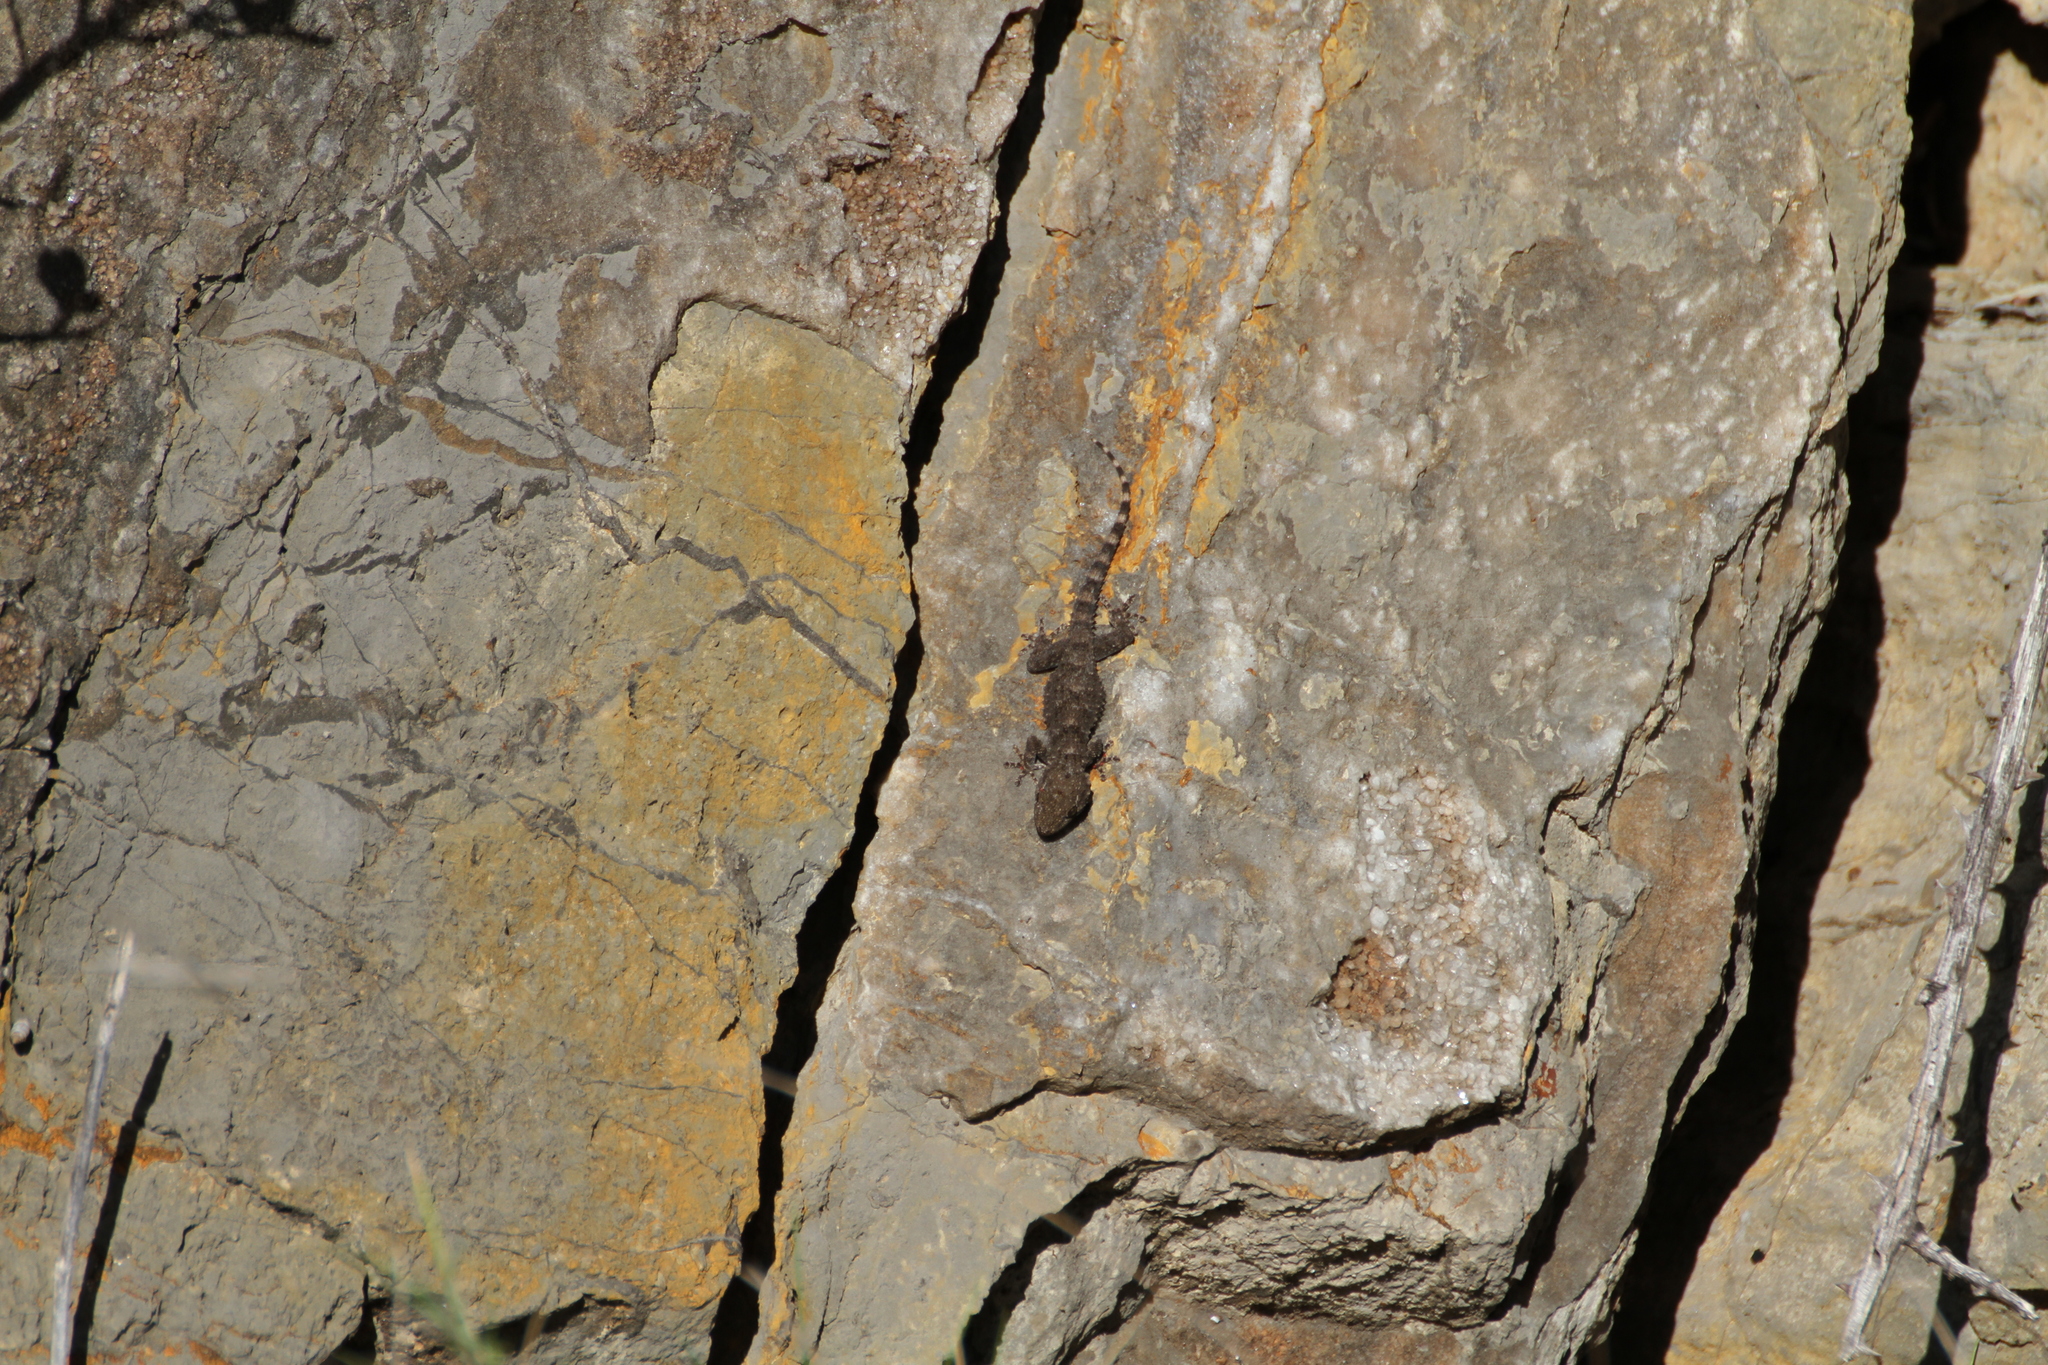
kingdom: Animalia
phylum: Chordata
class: Squamata
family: Phyllodactylidae
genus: Tarentola
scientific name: Tarentola mauritanica
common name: Moorish gecko
